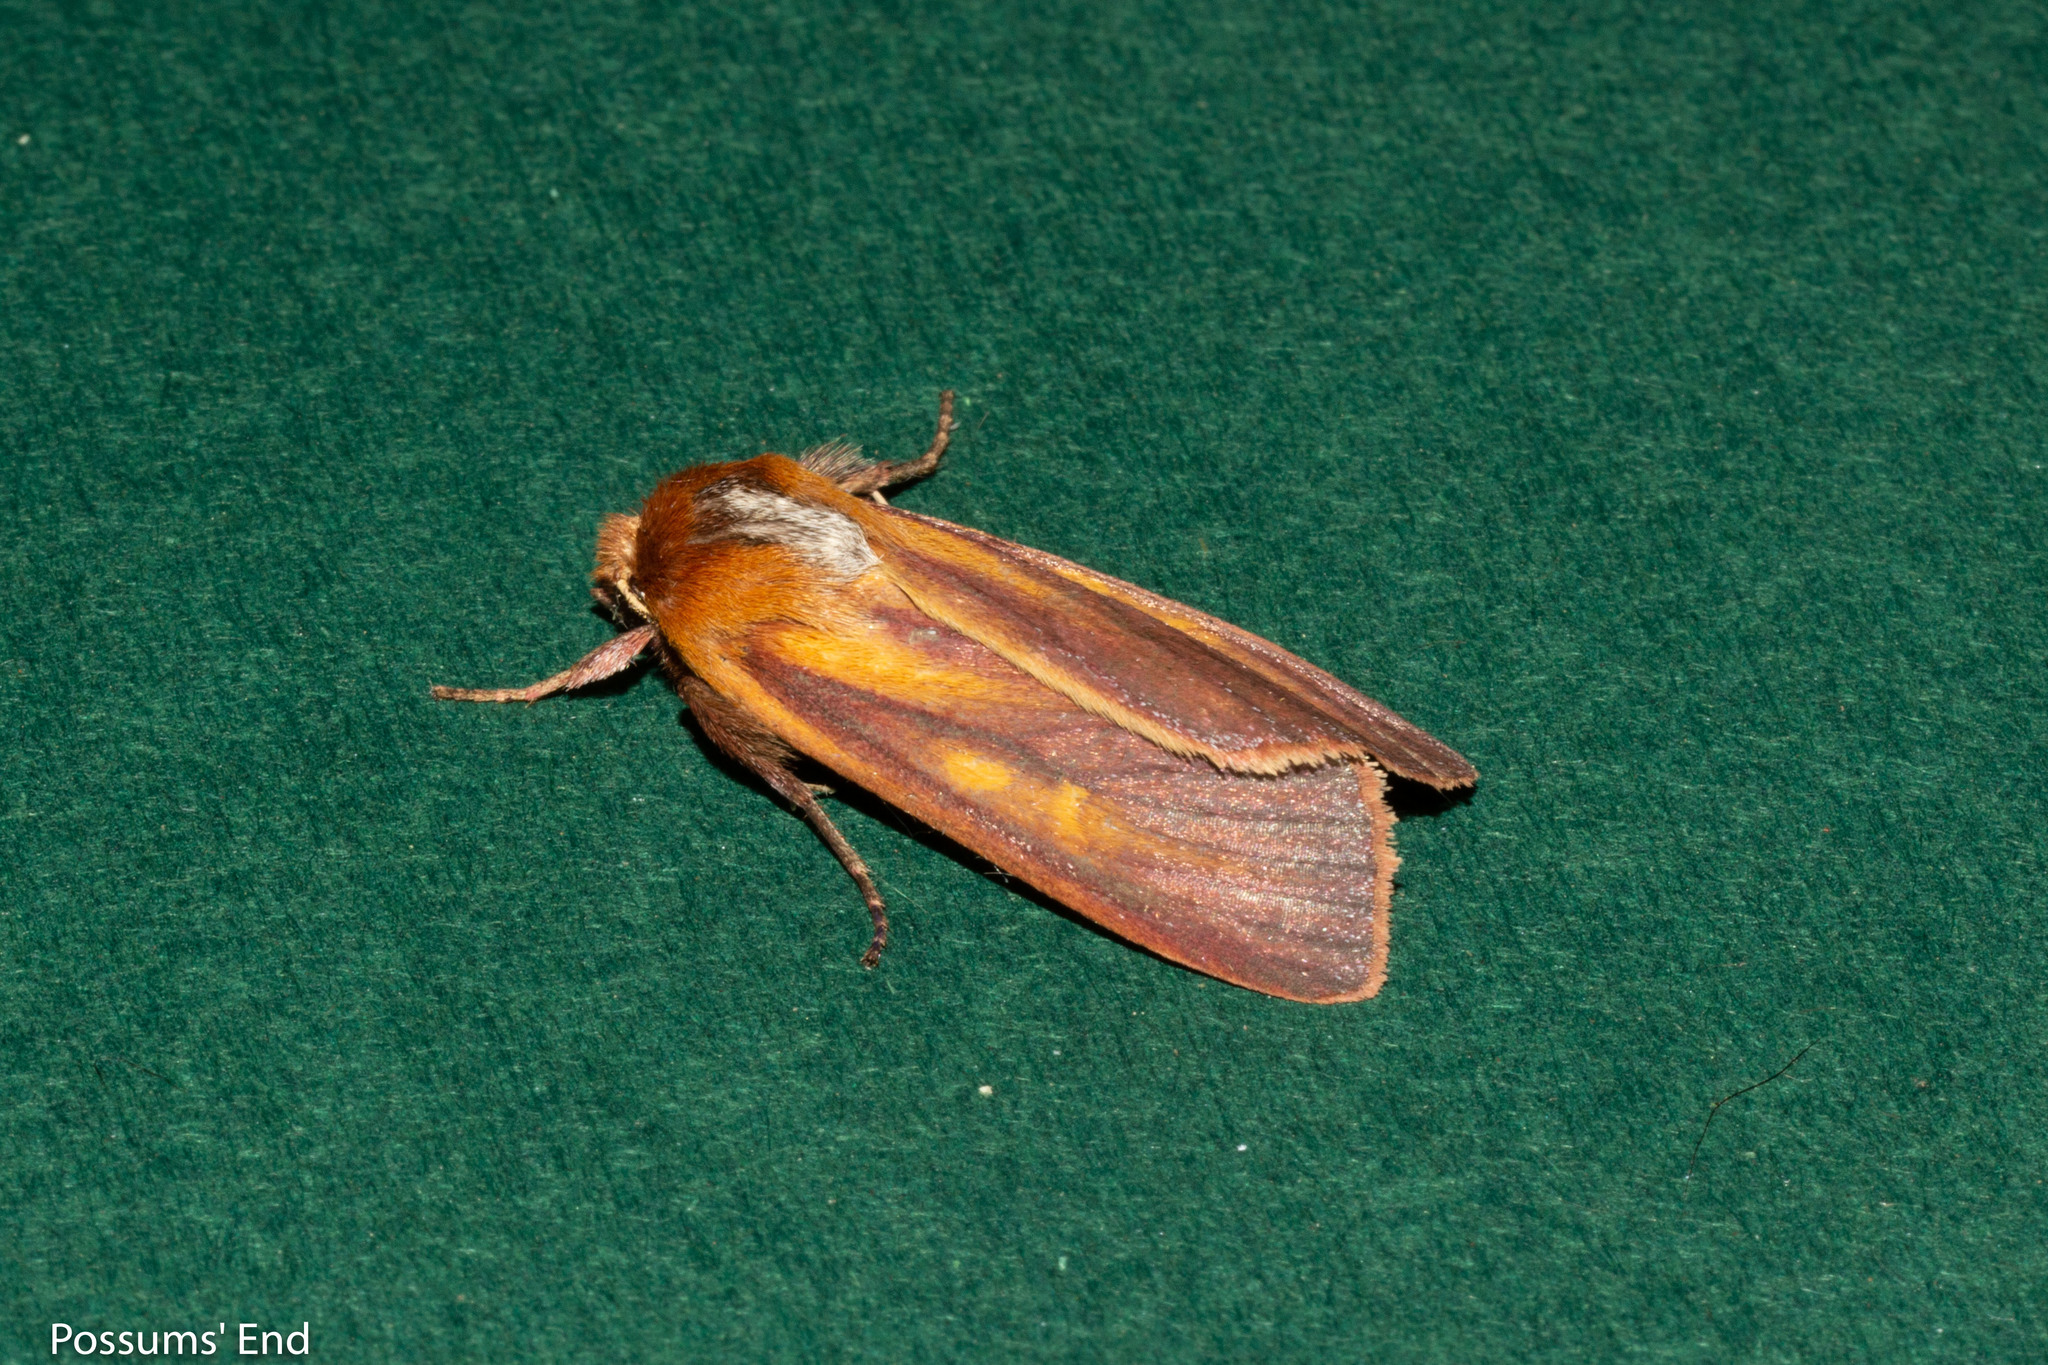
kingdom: Animalia
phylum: Arthropoda
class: Insecta
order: Lepidoptera
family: Noctuidae
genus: Ichneutica
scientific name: Ichneutica
